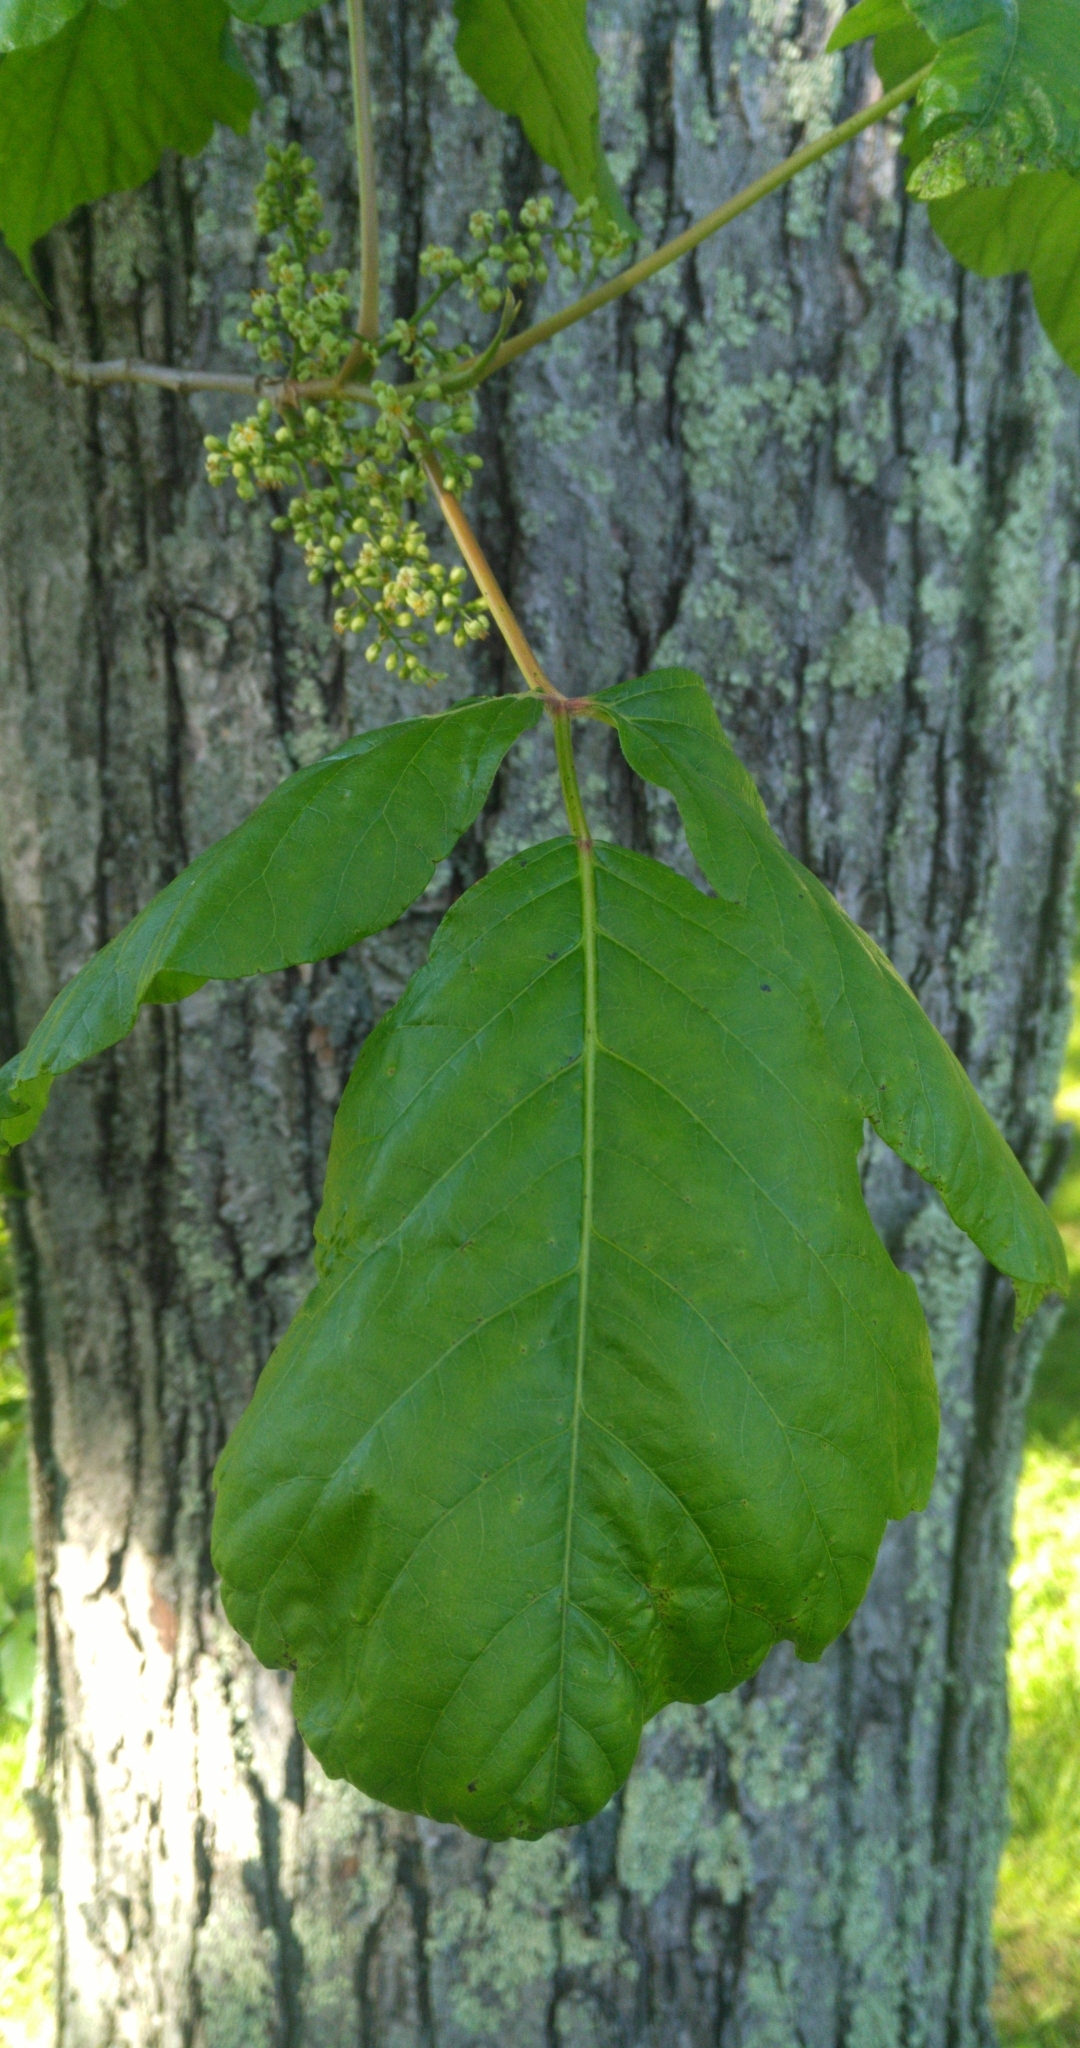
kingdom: Plantae
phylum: Tracheophyta
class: Magnoliopsida
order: Sapindales
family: Anacardiaceae
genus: Toxicodendron
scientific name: Toxicodendron radicans
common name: Poison ivy
